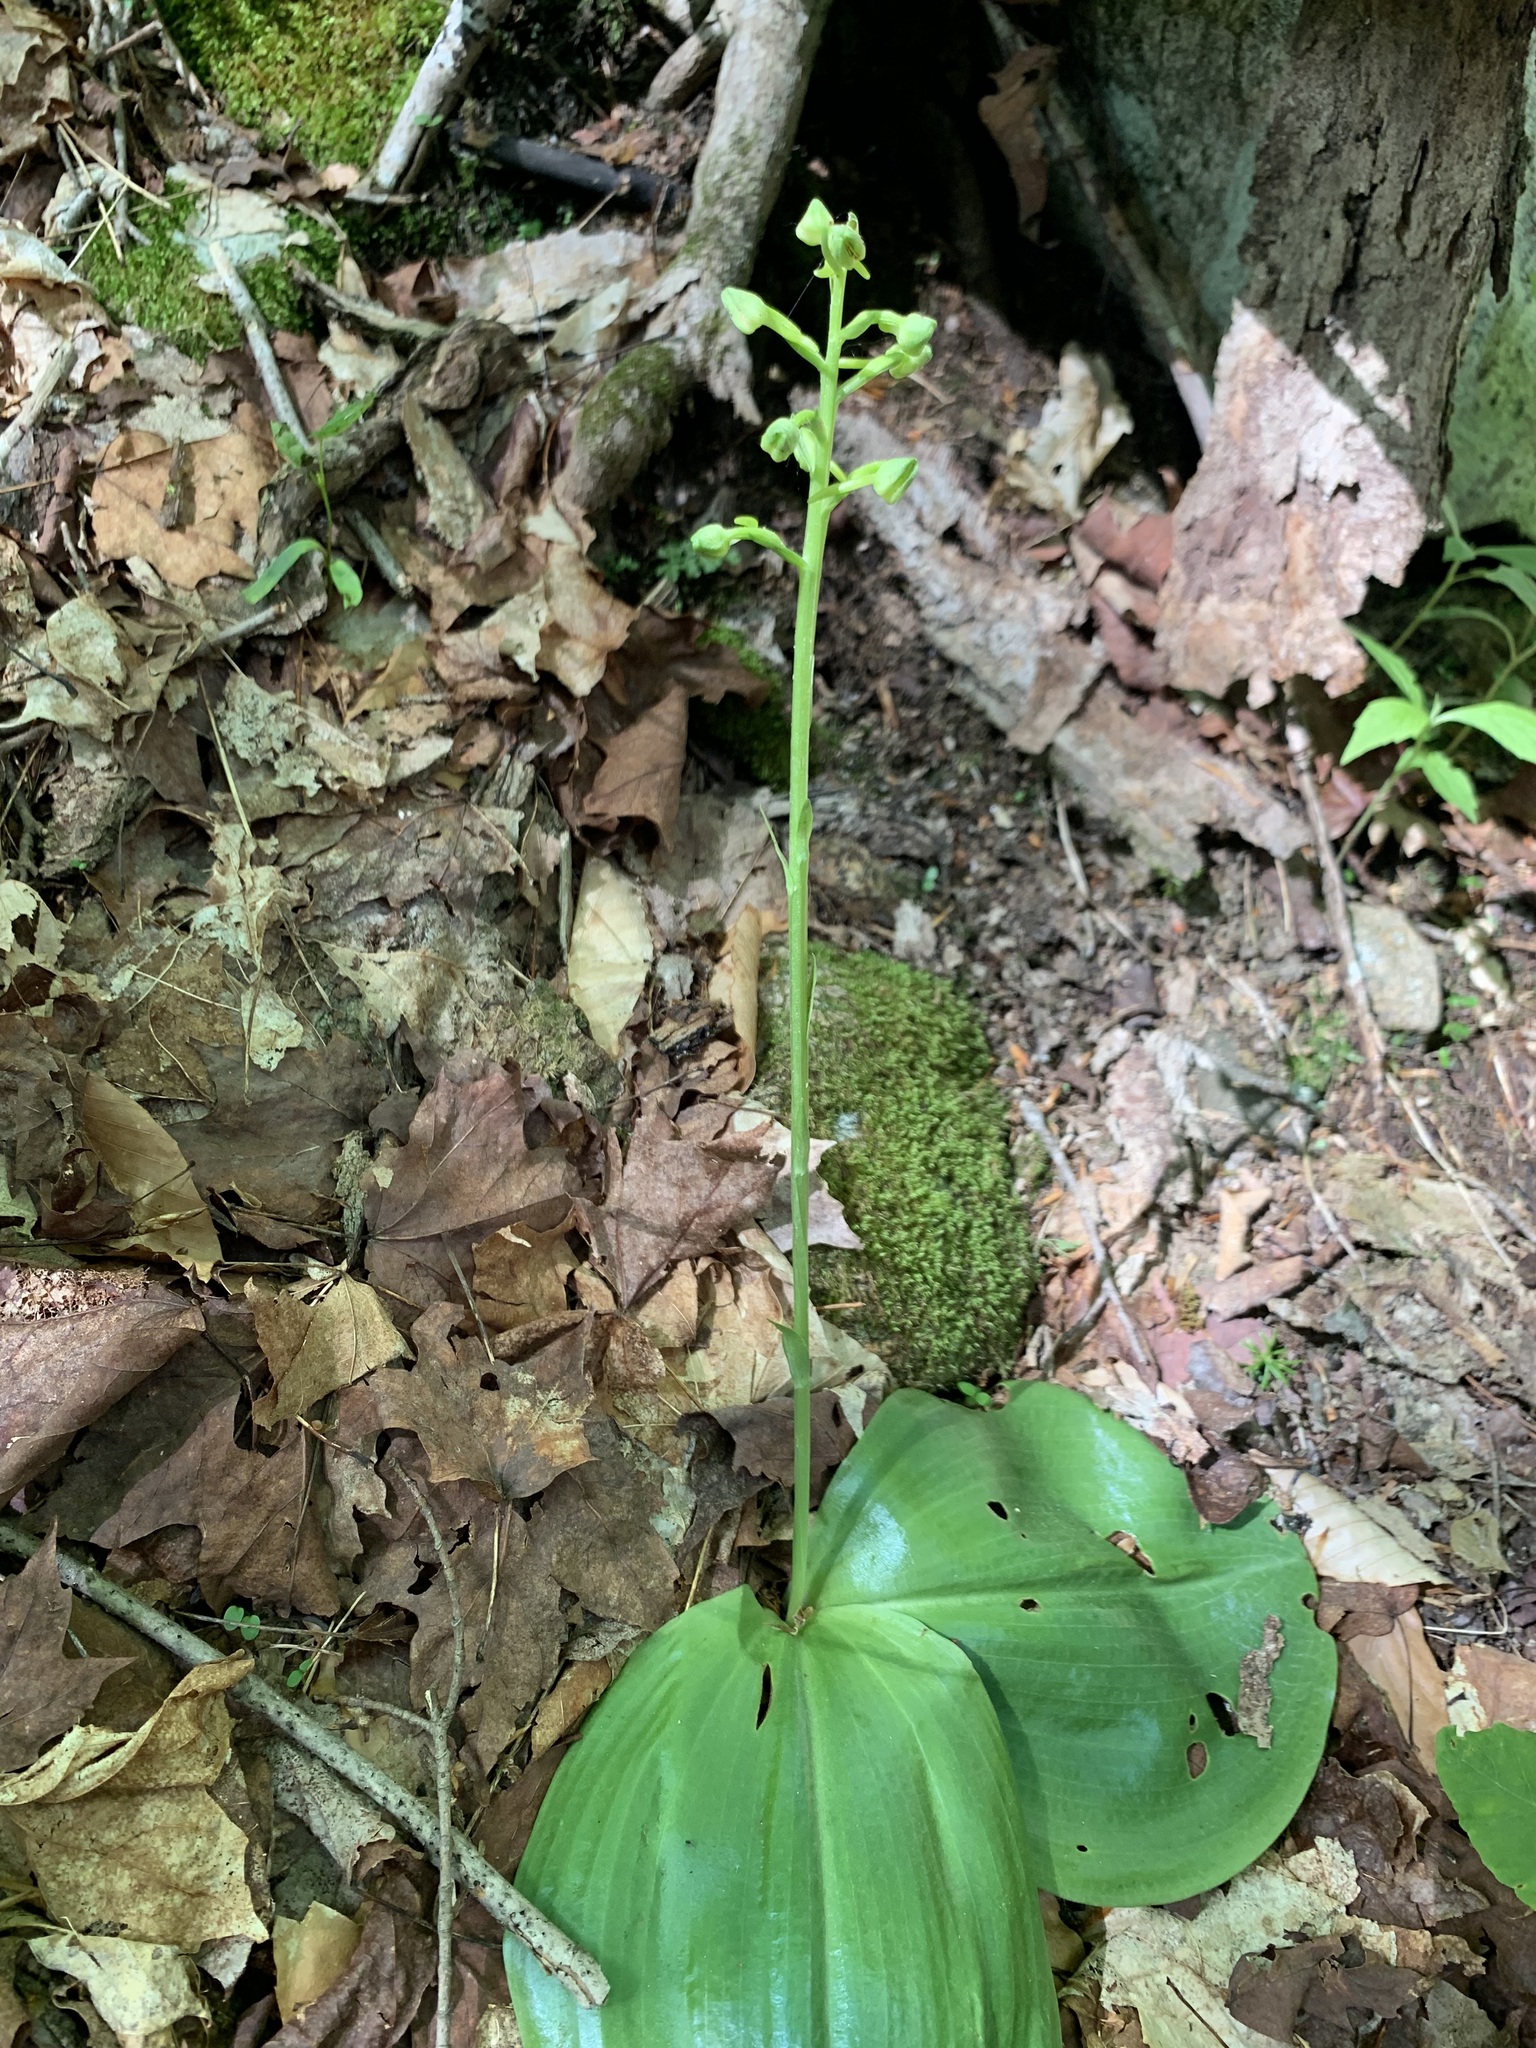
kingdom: Plantae
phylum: Tracheophyta
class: Liliopsida
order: Asparagales
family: Orchidaceae
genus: Platanthera
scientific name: Platanthera orbiculata
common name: Large round-leaved orchid
